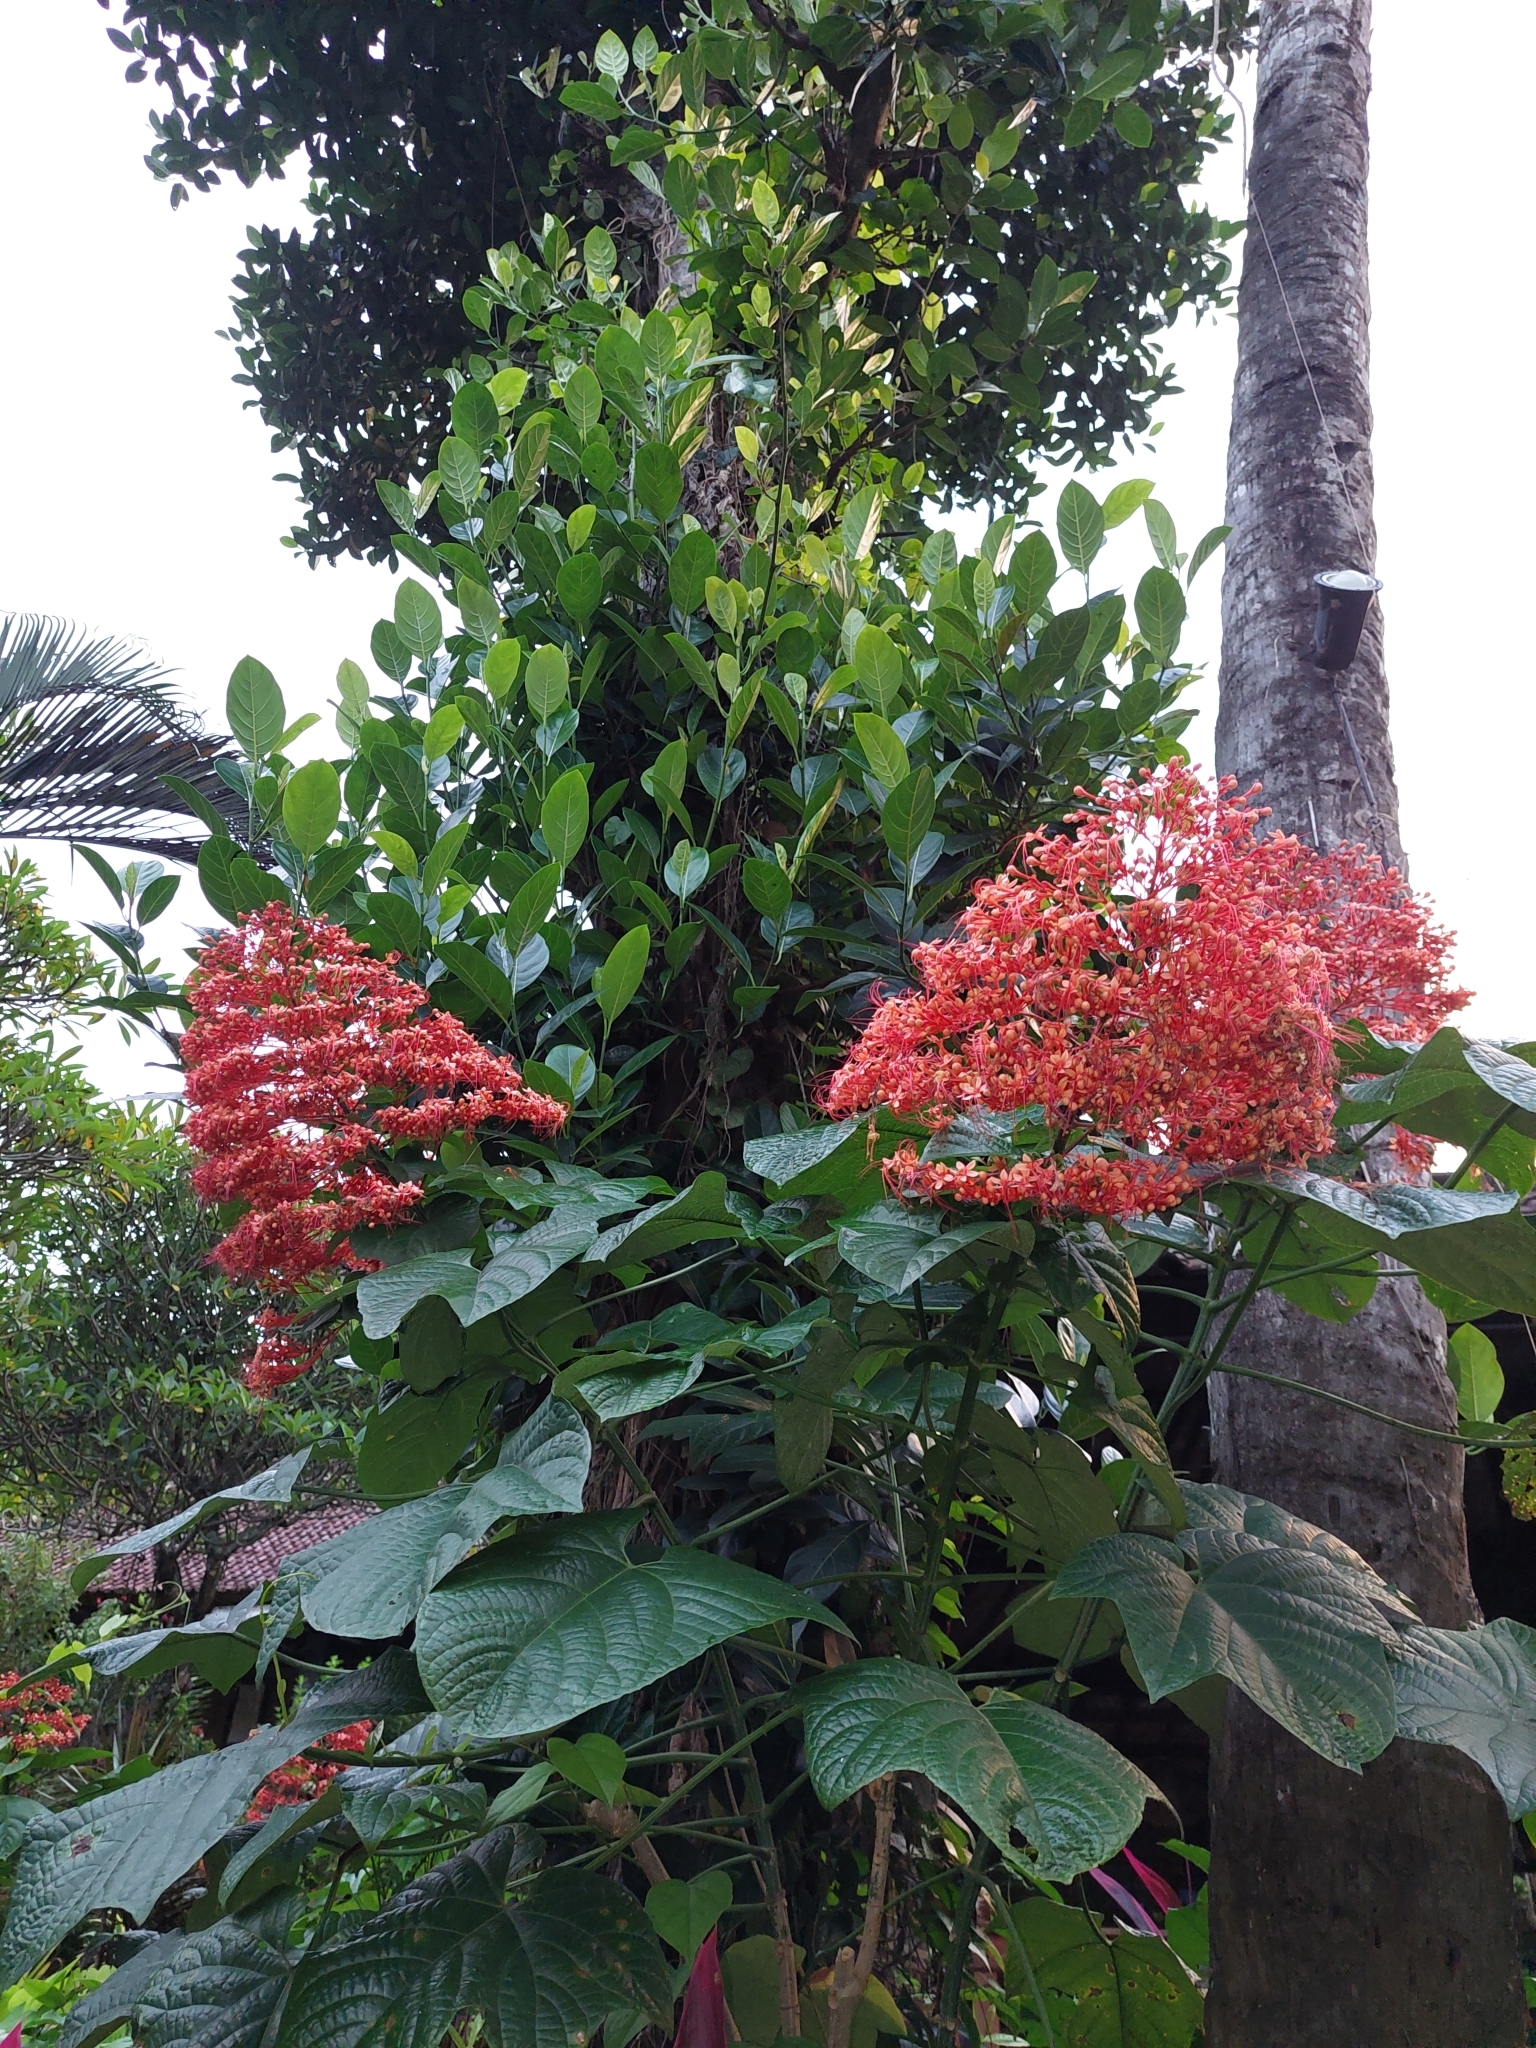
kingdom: Plantae
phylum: Tracheophyta
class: Magnoliopsida
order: Lamiales
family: Lamiaceae
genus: Clerodendrum
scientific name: Clerodendrum paniculatum
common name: Pagoda-flower
